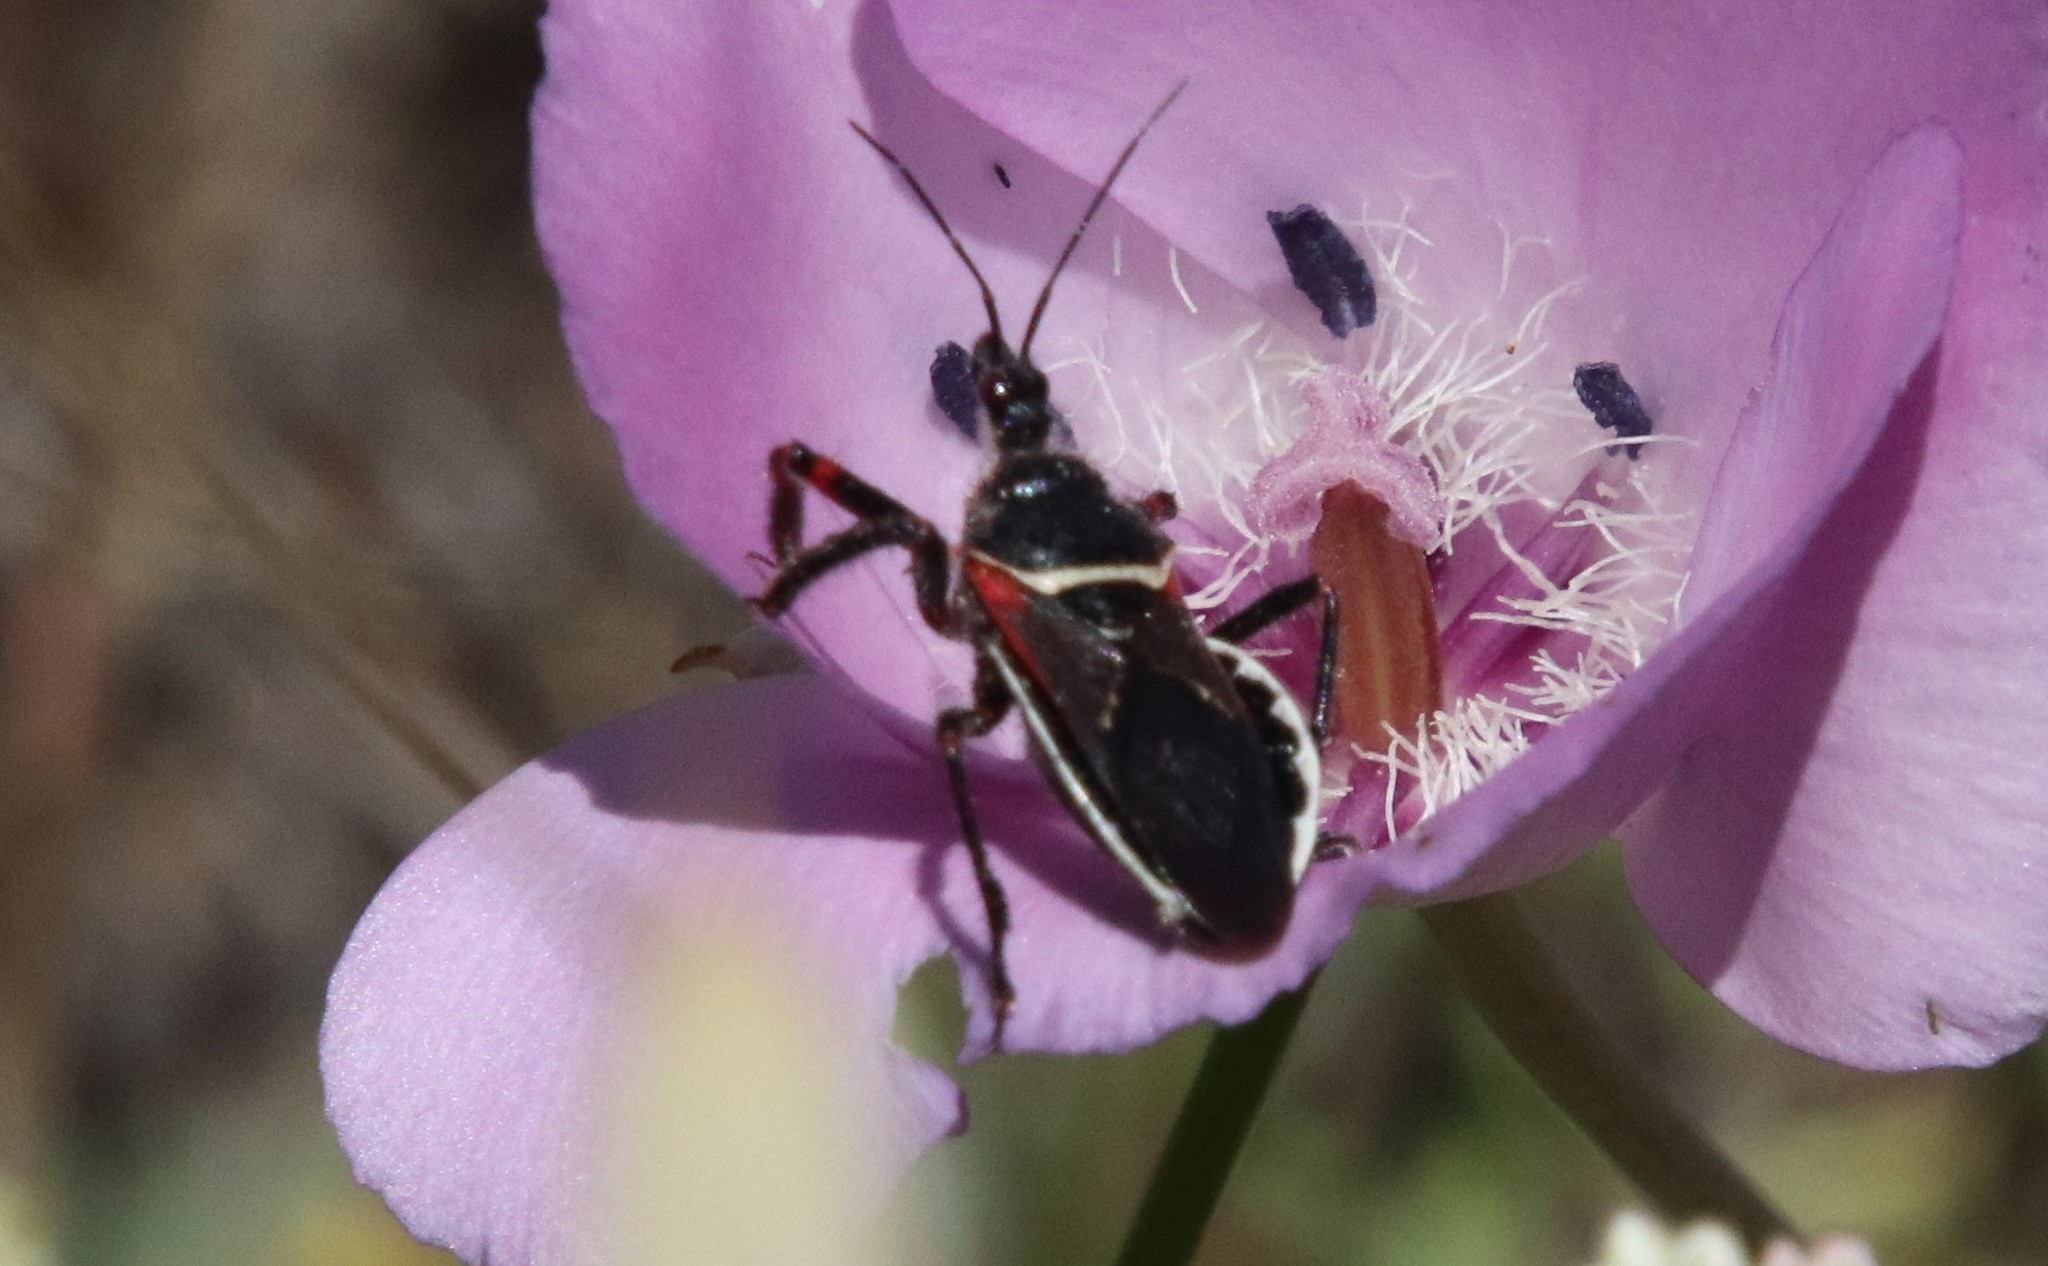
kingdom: Animalia
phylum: Arthropoda
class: Insecta
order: Hemiptera
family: Reduviidae
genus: Apiomerus
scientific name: Apiomerus californicus
